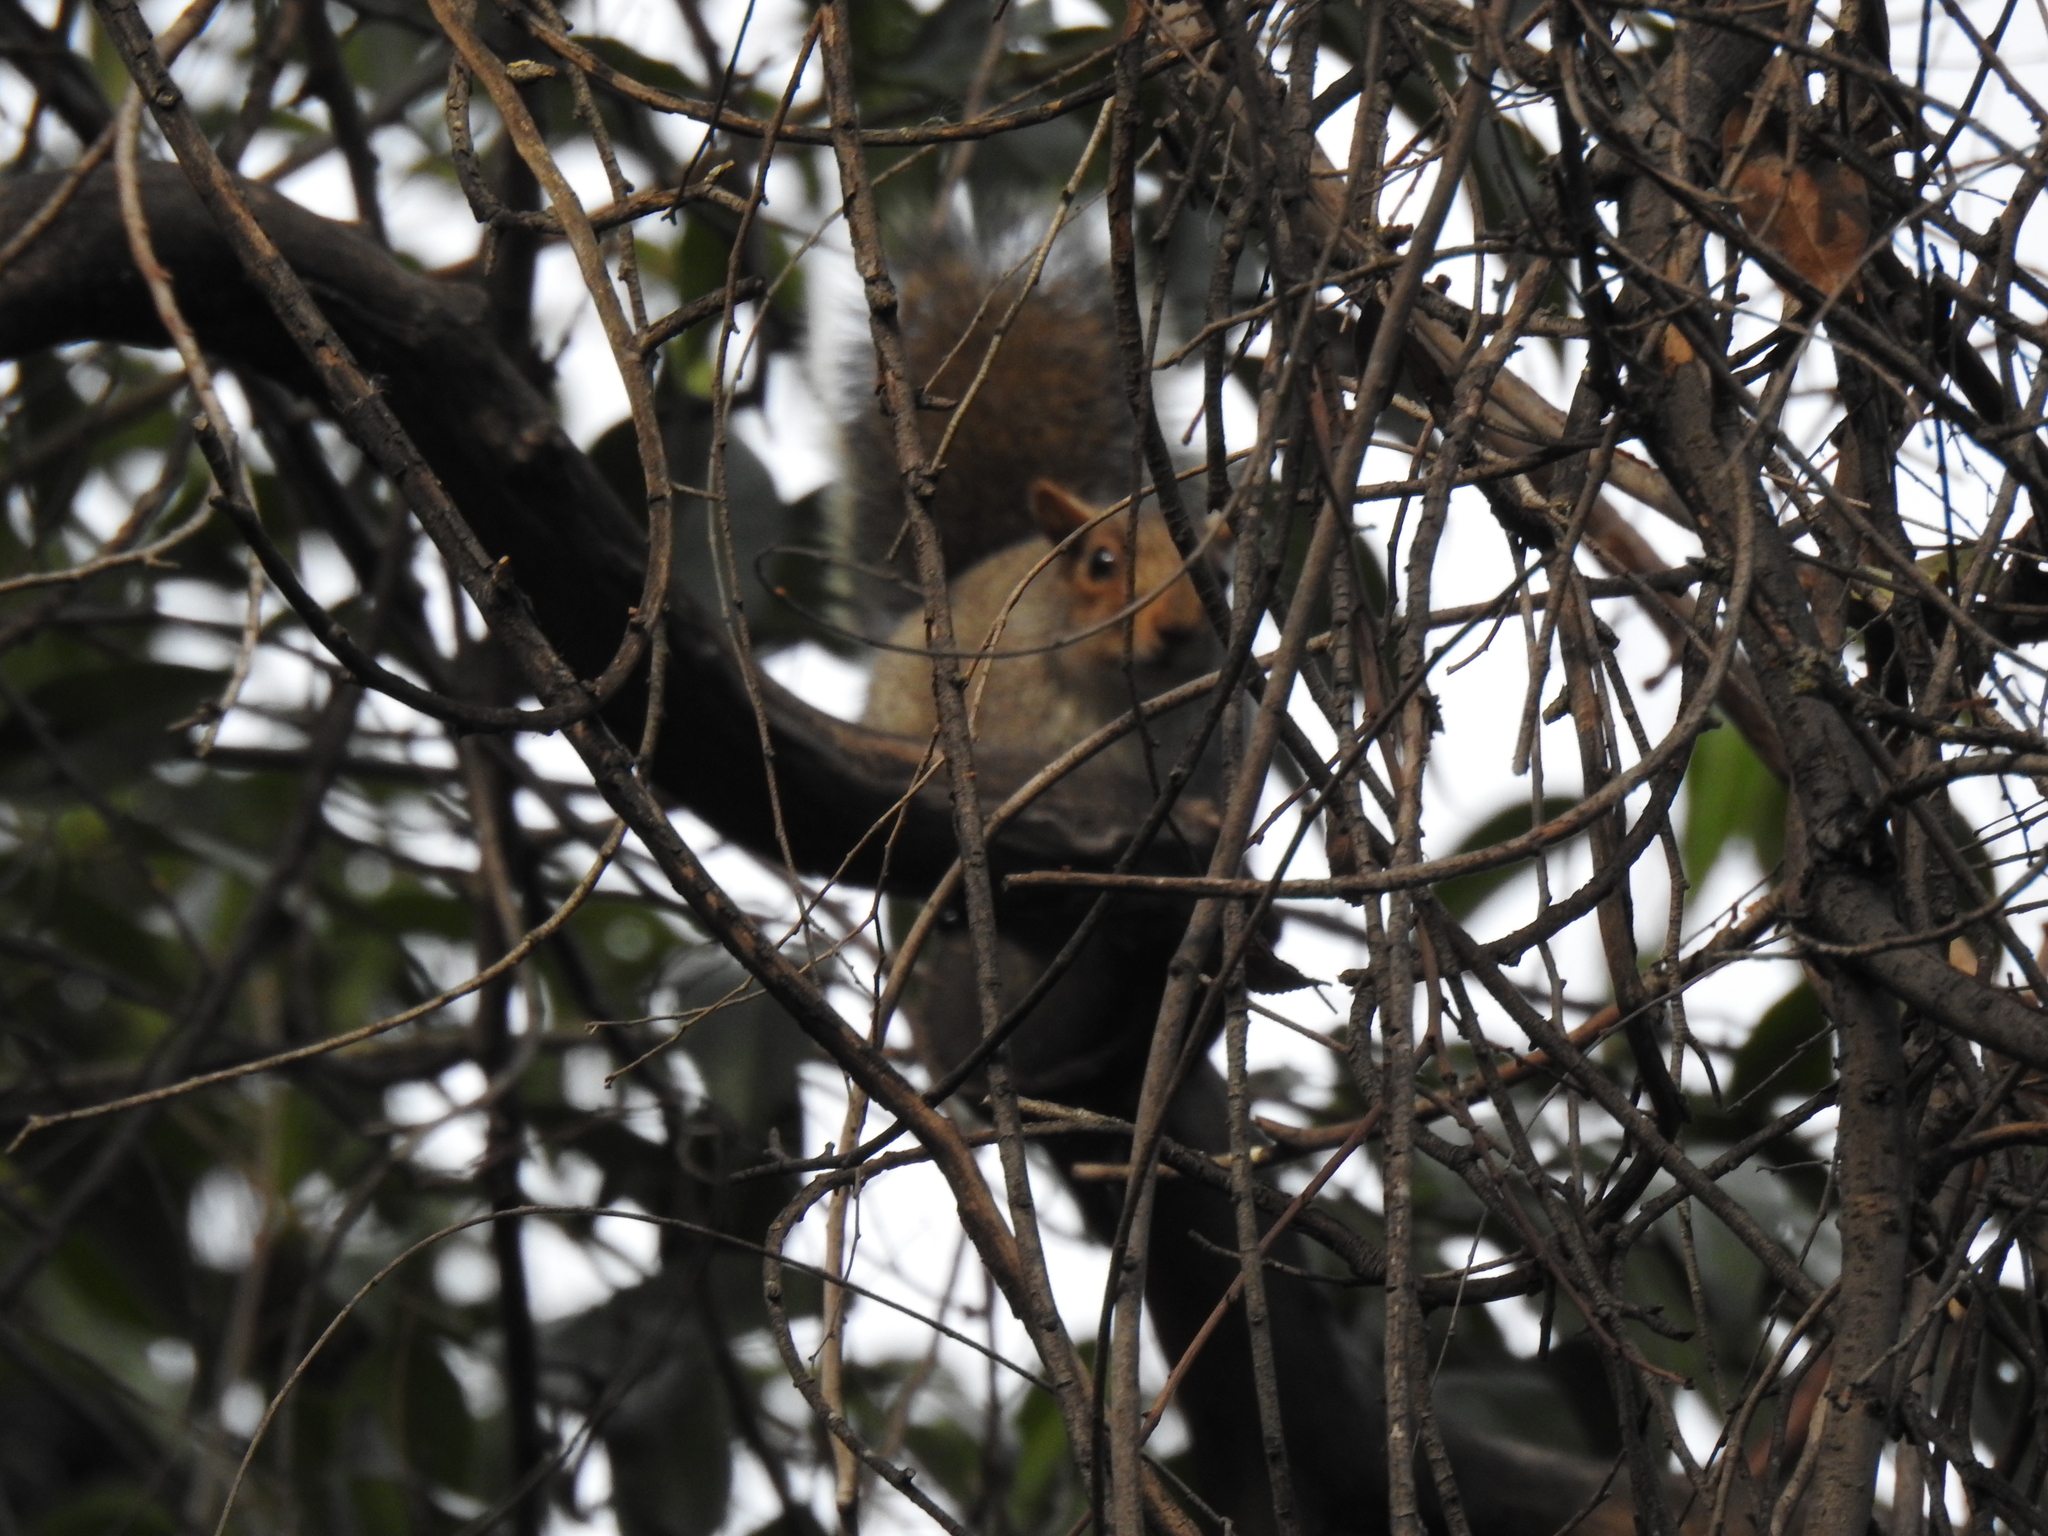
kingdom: Animalia
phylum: Chordata
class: Mammalia
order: Rodentia
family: Sciuridae
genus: Sciurus
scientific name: Sciurus carolinensis
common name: Eastern gray squirrel
